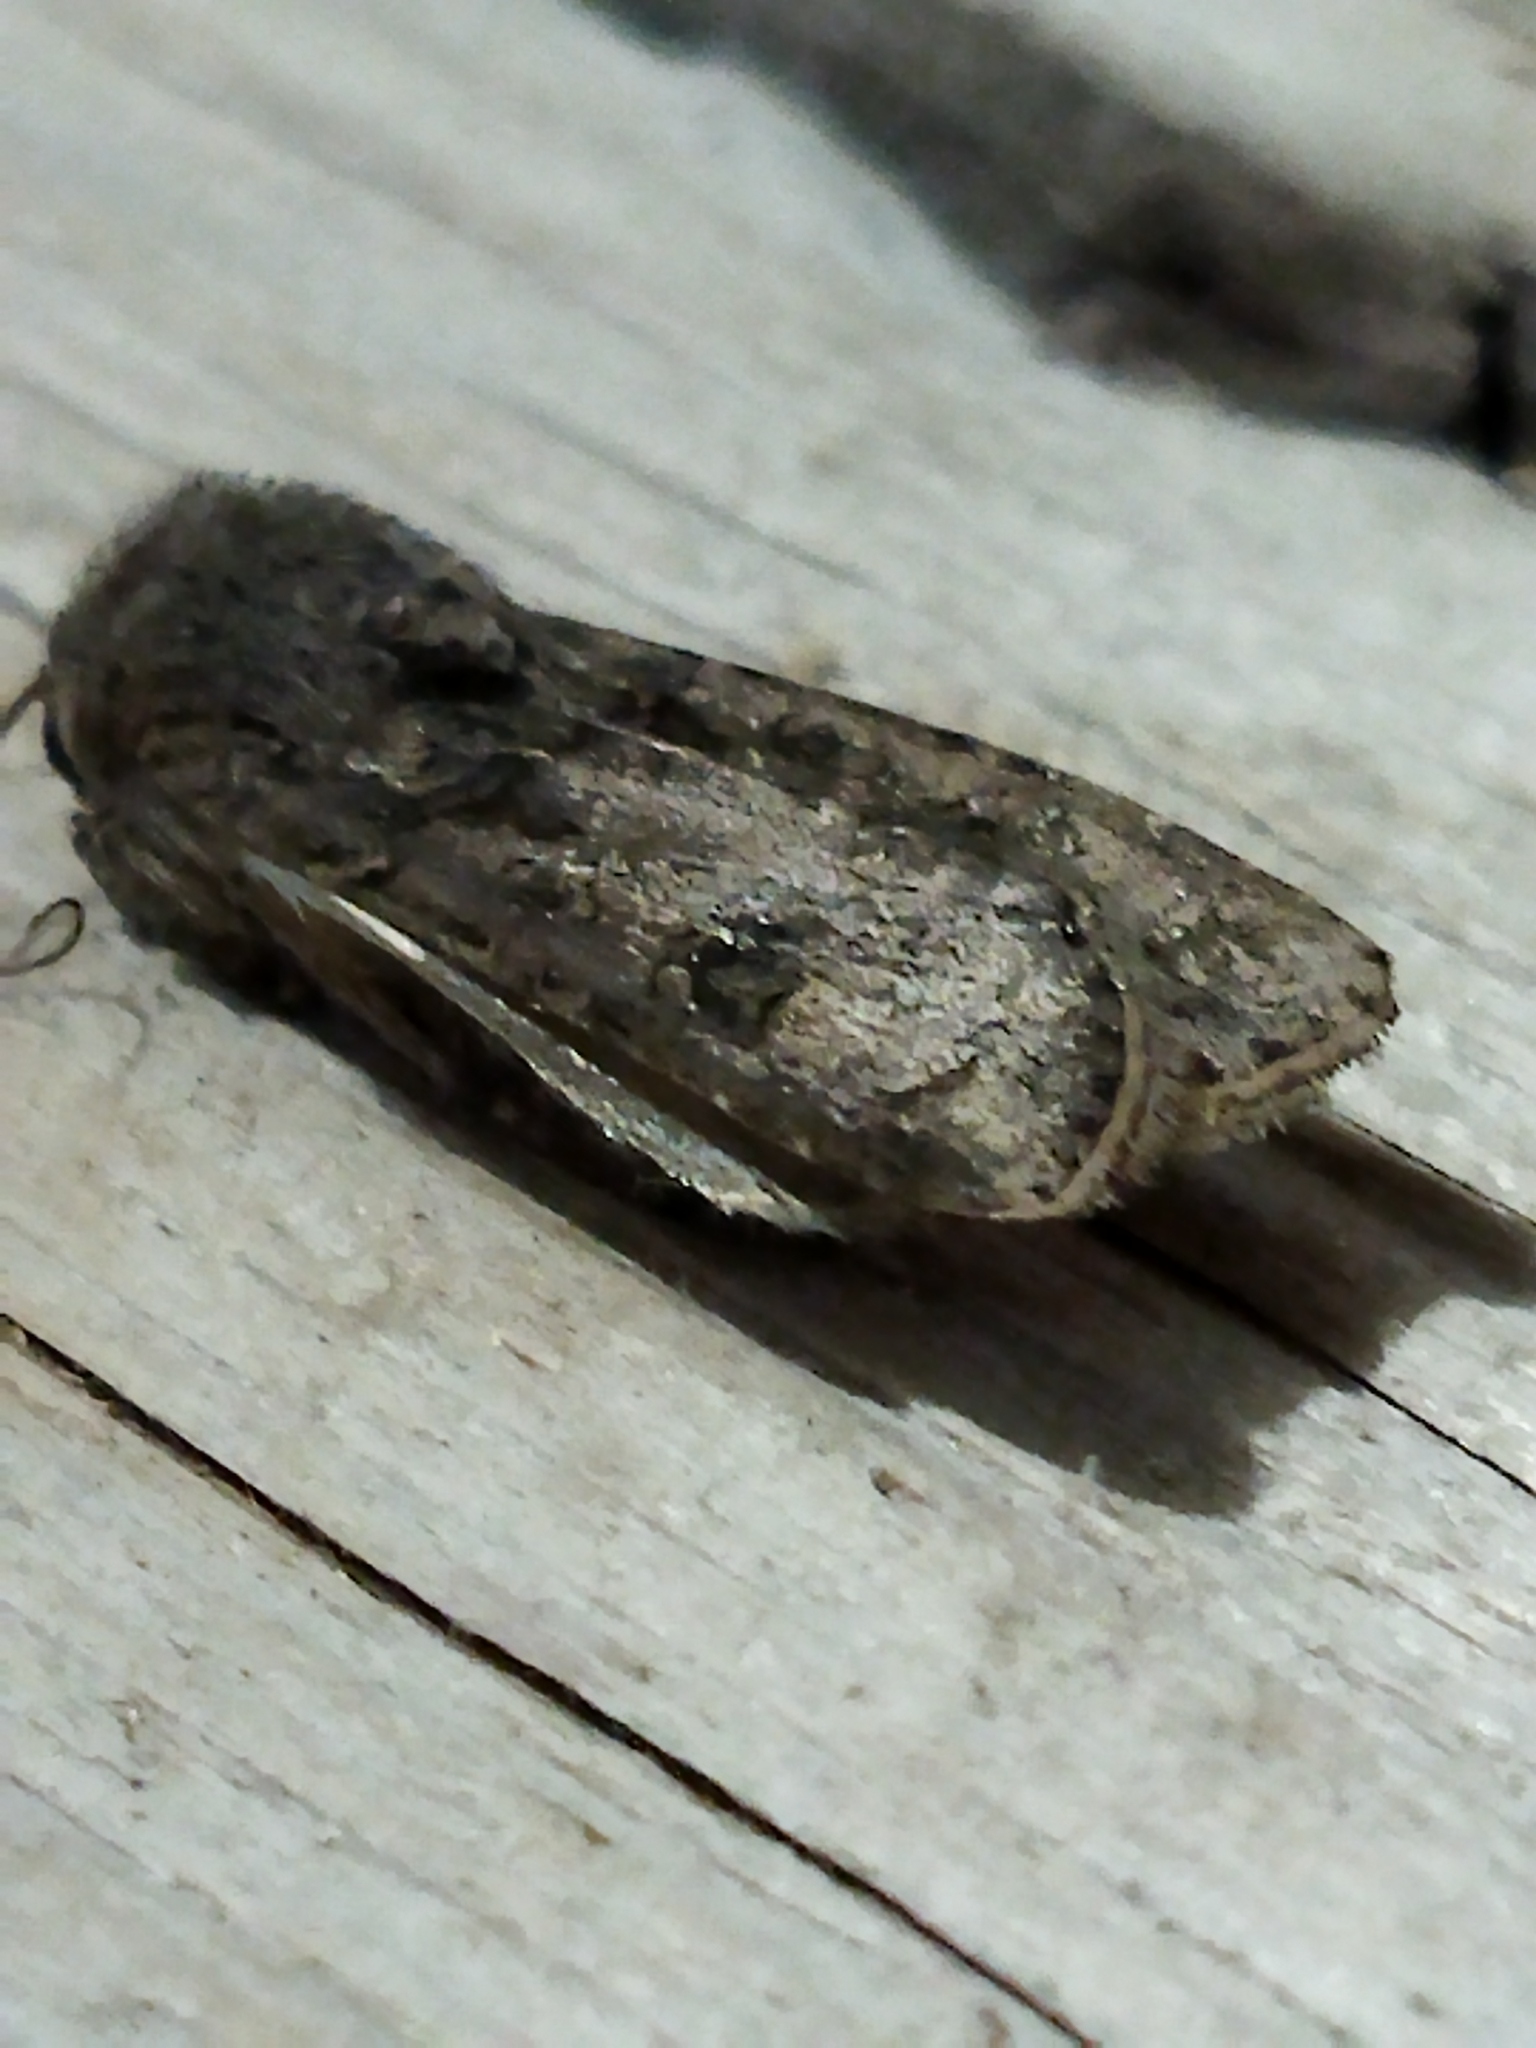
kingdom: Animalia
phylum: Arthropoda
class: Insecta
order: Lepidoptera
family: Noctuidae
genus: Agrotis
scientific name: Agrotis segetum
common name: Turnip moth
